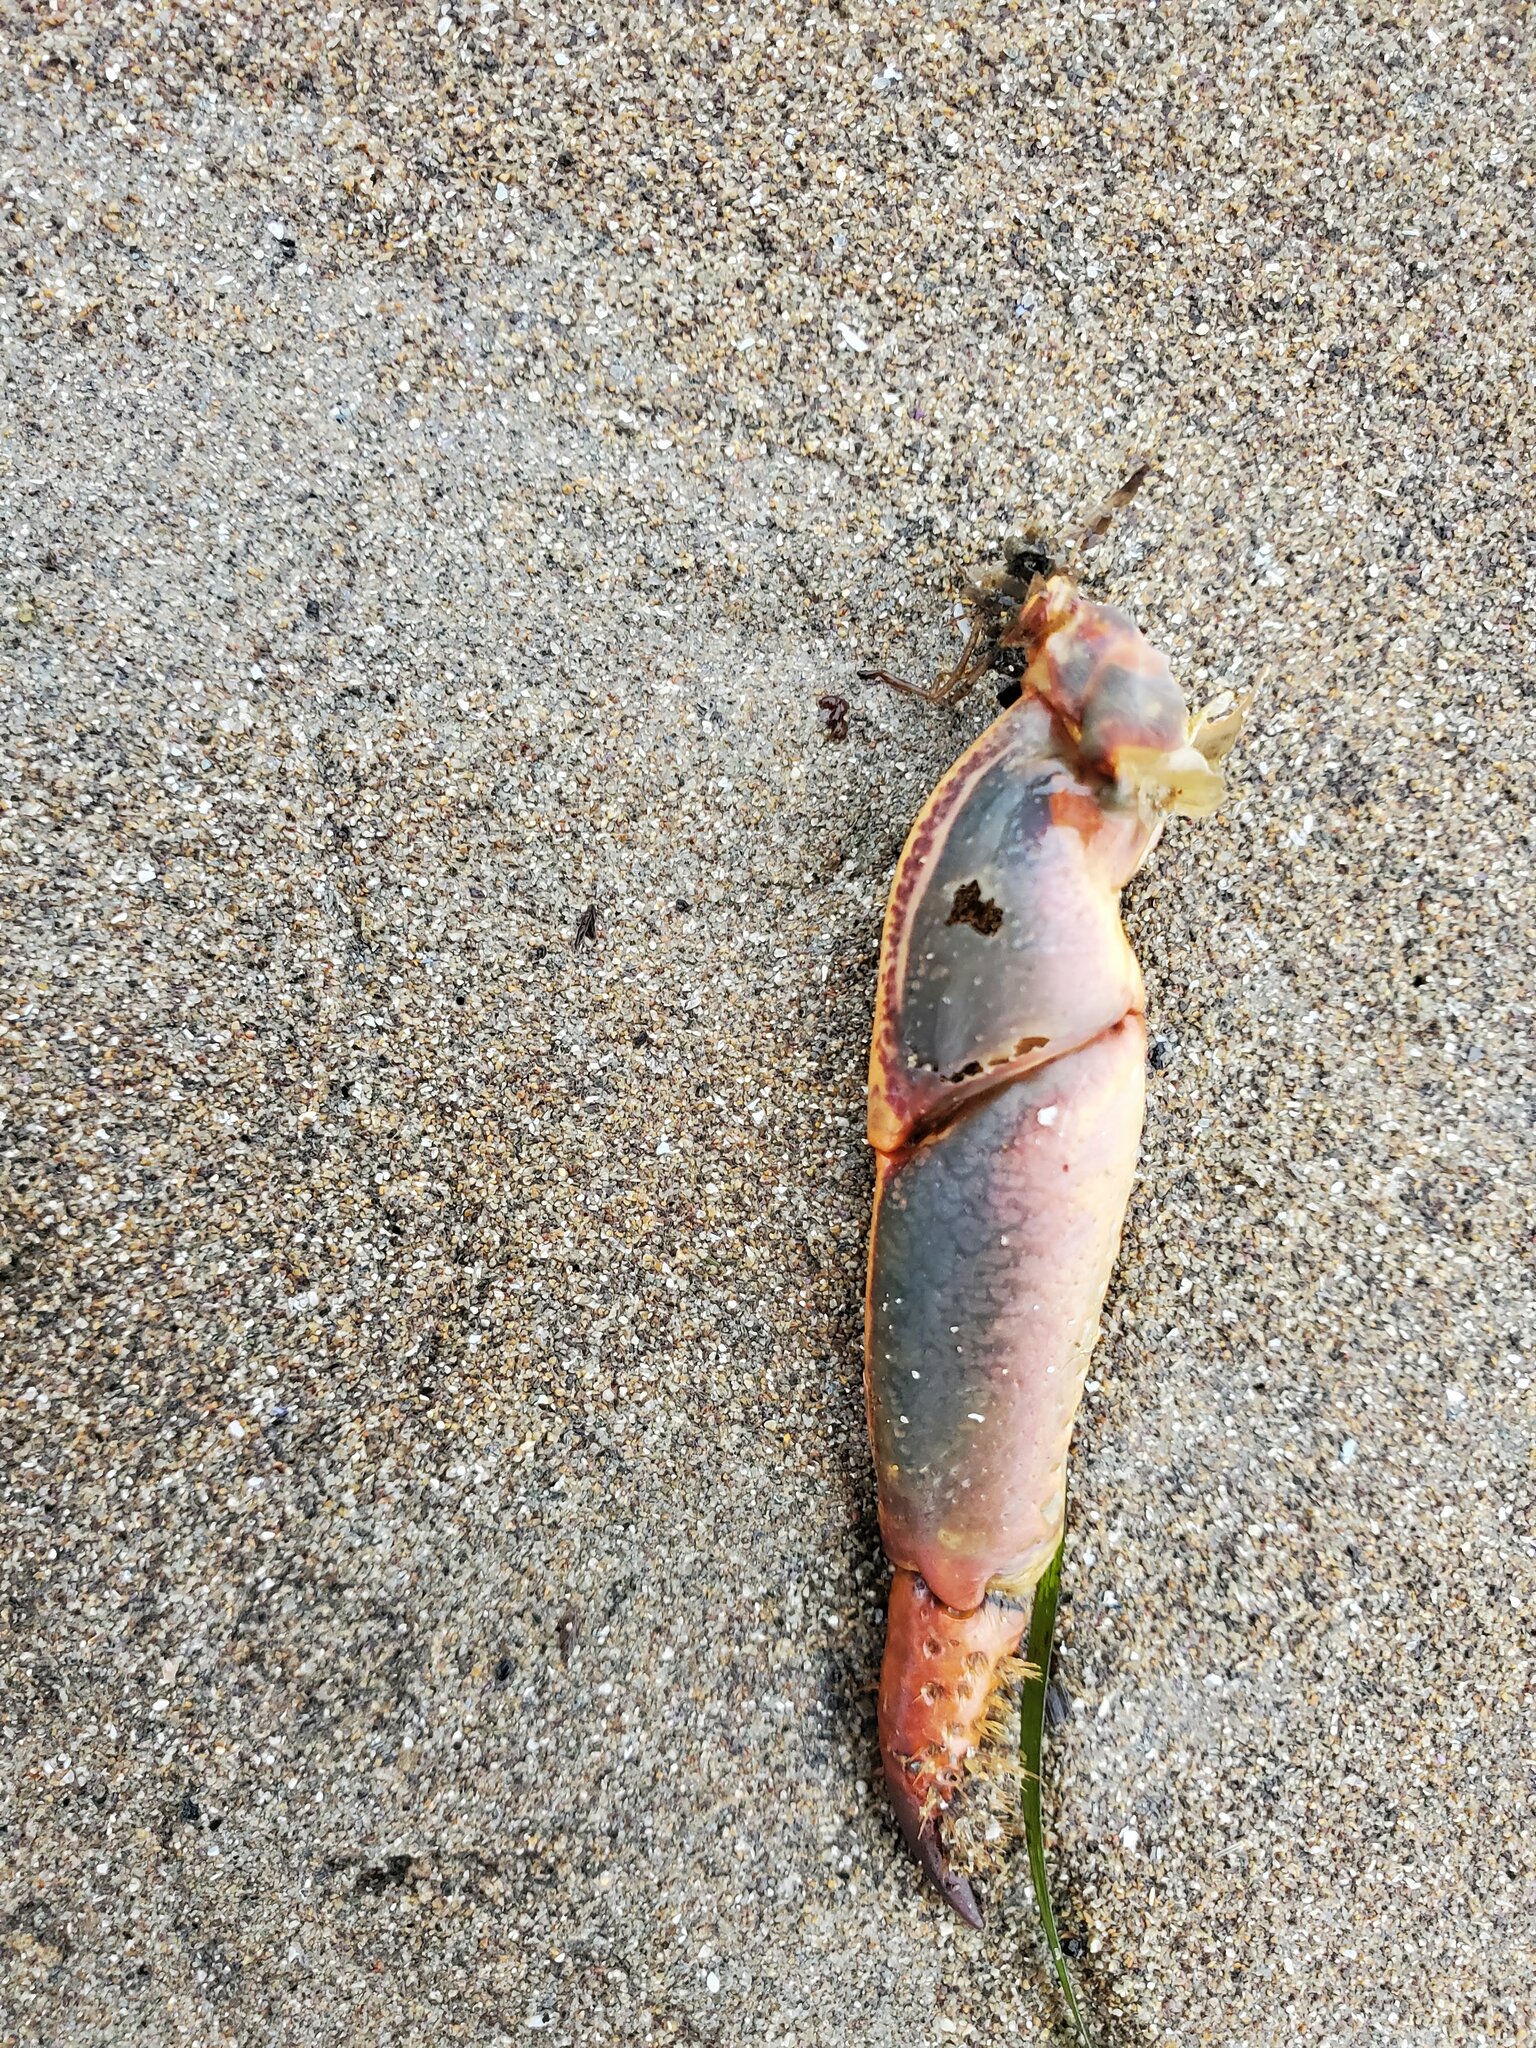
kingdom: Animalia
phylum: Arthropoda
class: Malacostraca
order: Decapoda
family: Palinuridae
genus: Panulirus
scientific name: Panulirus interruptus
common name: California spiny lobster
